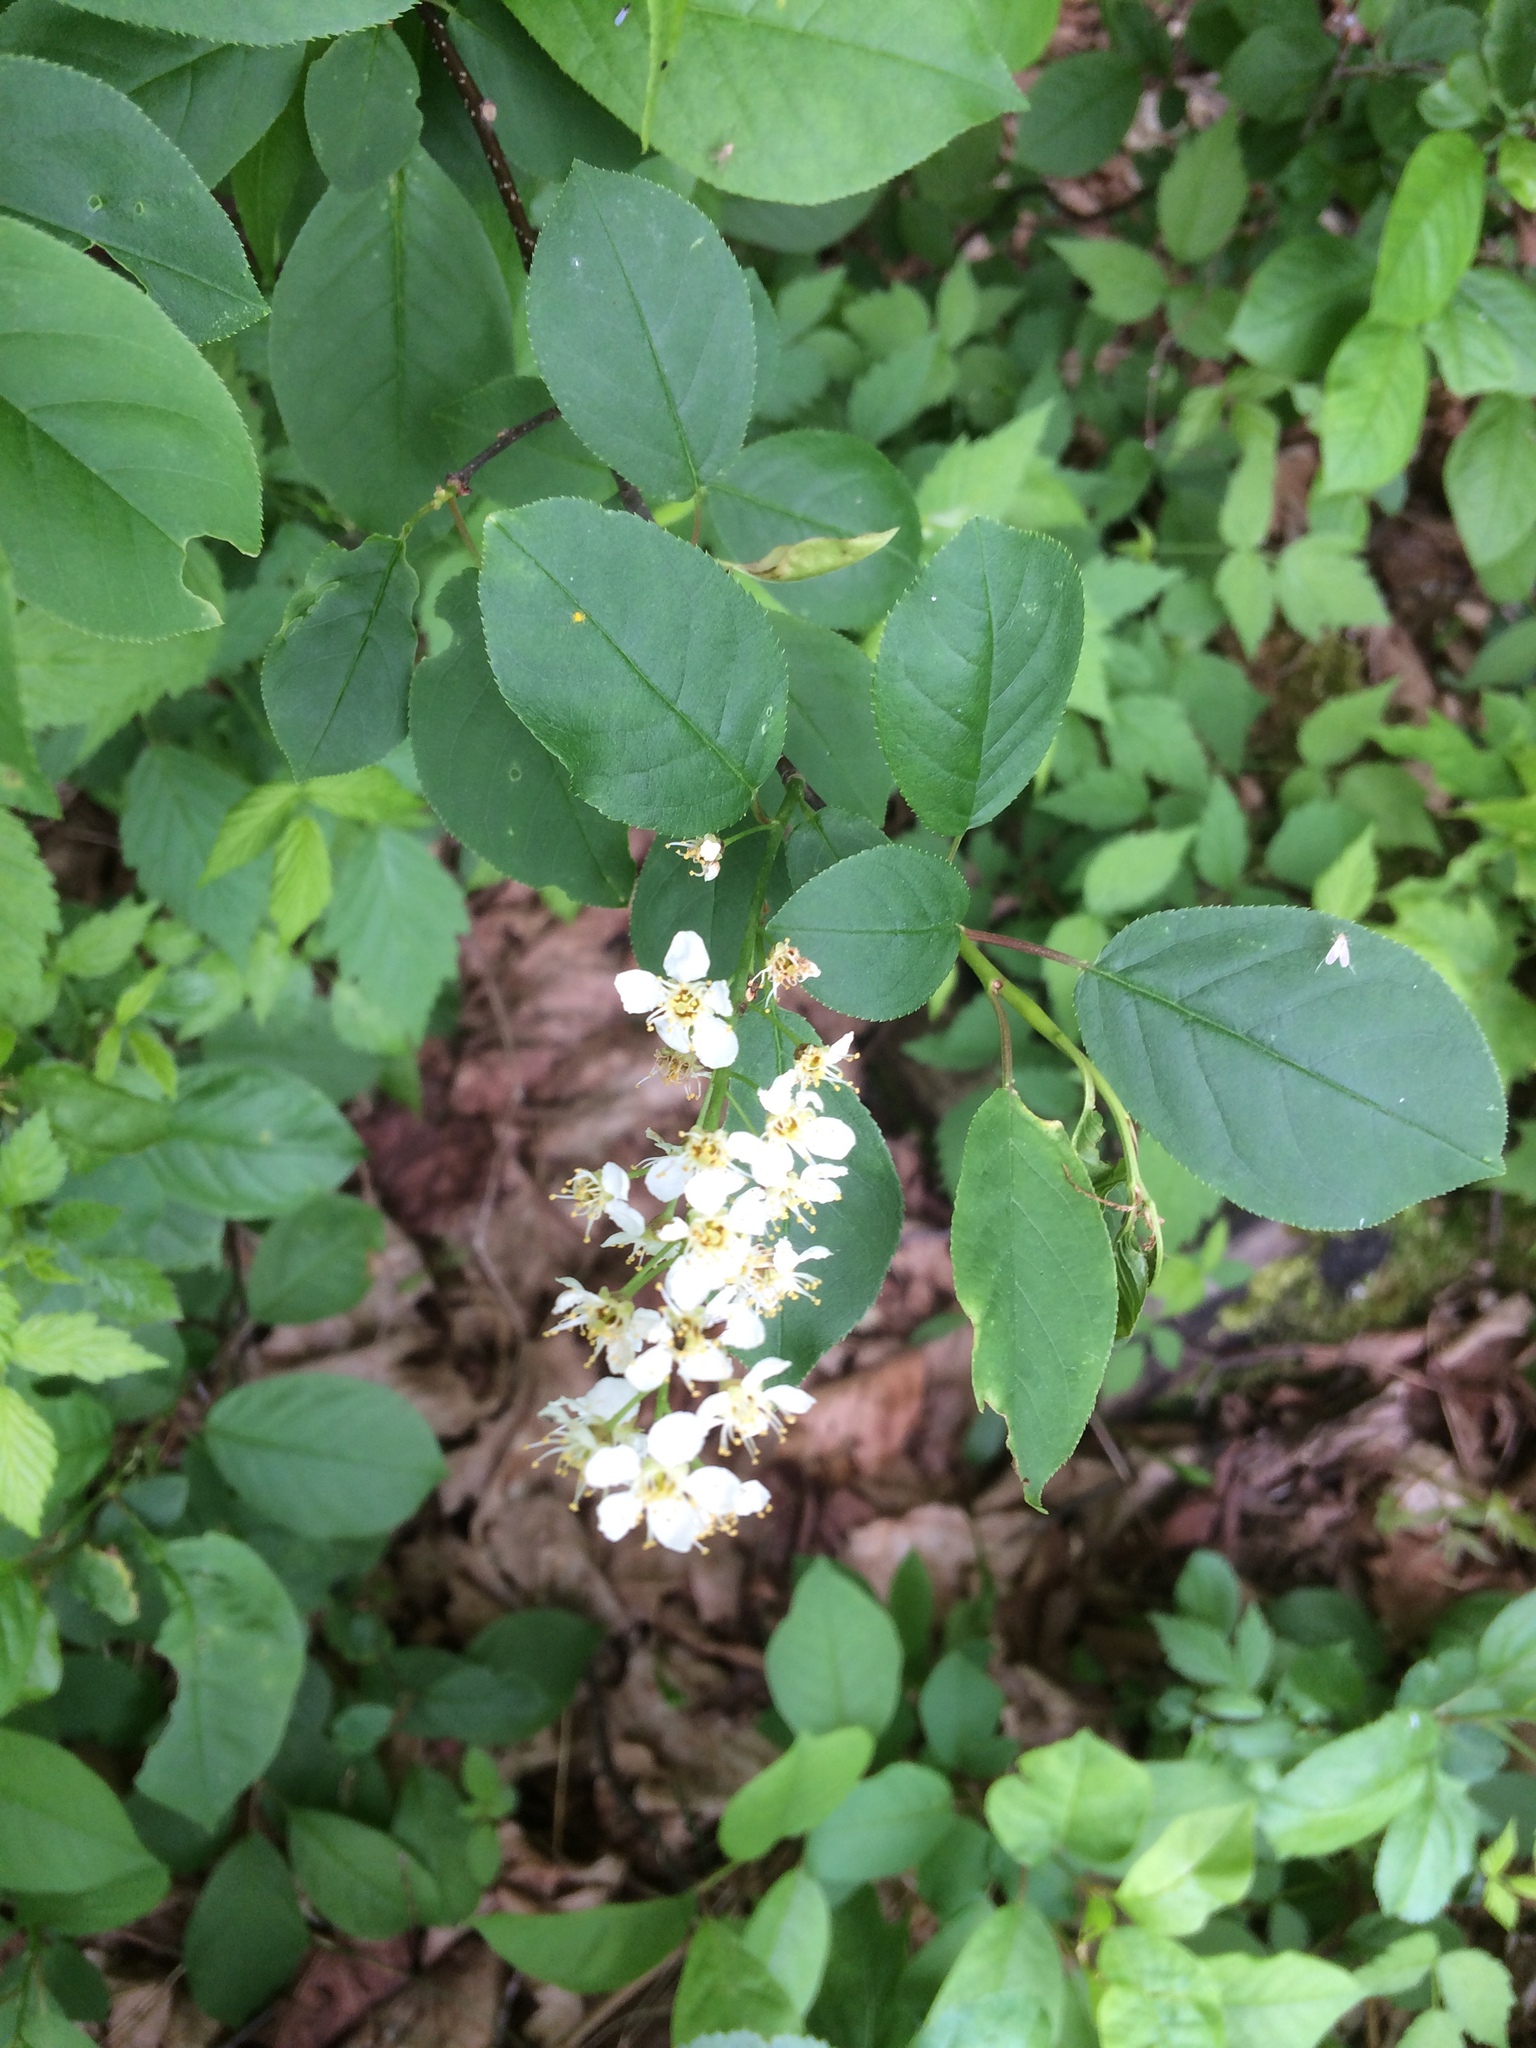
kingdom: Plantae
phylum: Tracheophyta
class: Magnoliopsida
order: Rosales
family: Rosaceae
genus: Prunus
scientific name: Prunus virginiana
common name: Chokecherry
